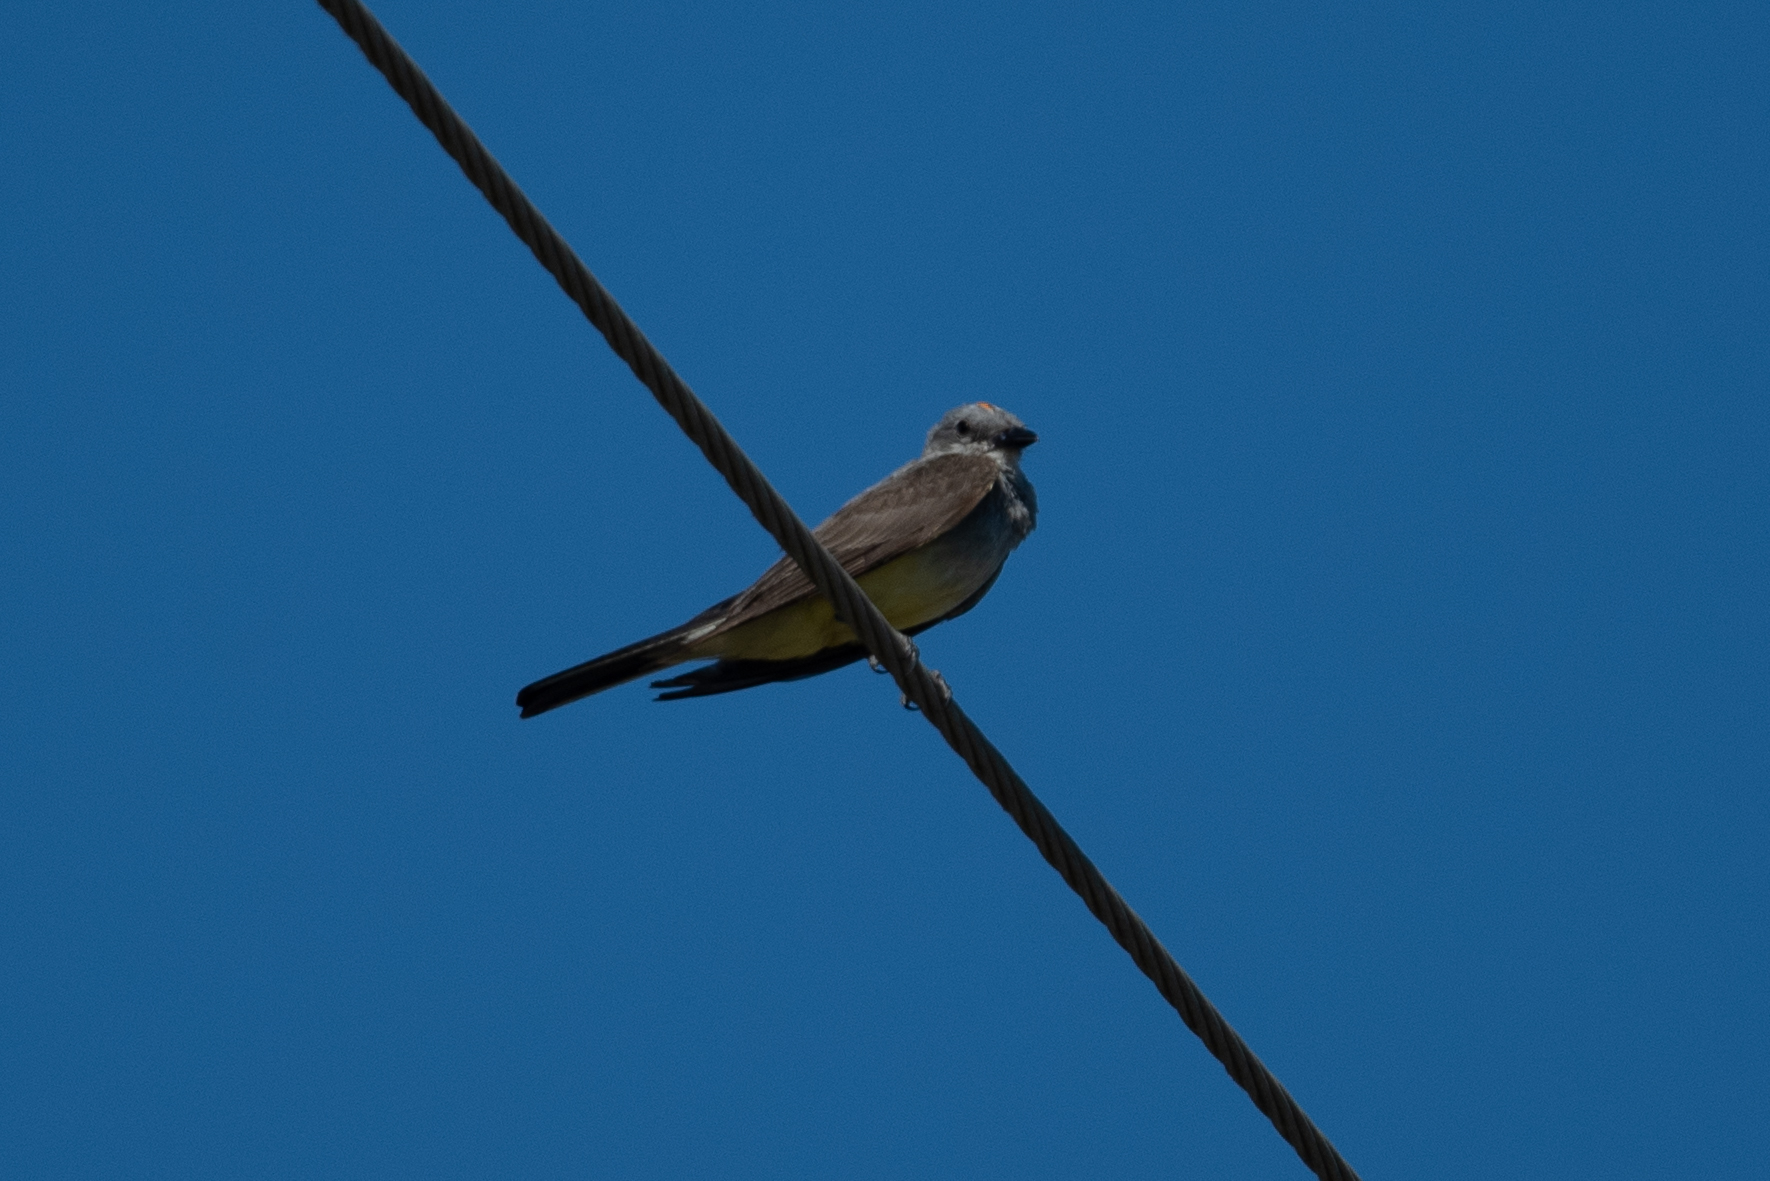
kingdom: Animalia
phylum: Chordata
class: Aves
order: Passeriformes
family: Tyrannidae
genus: Tyrannus
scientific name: Tyrannus verticalis
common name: Western kingbird
